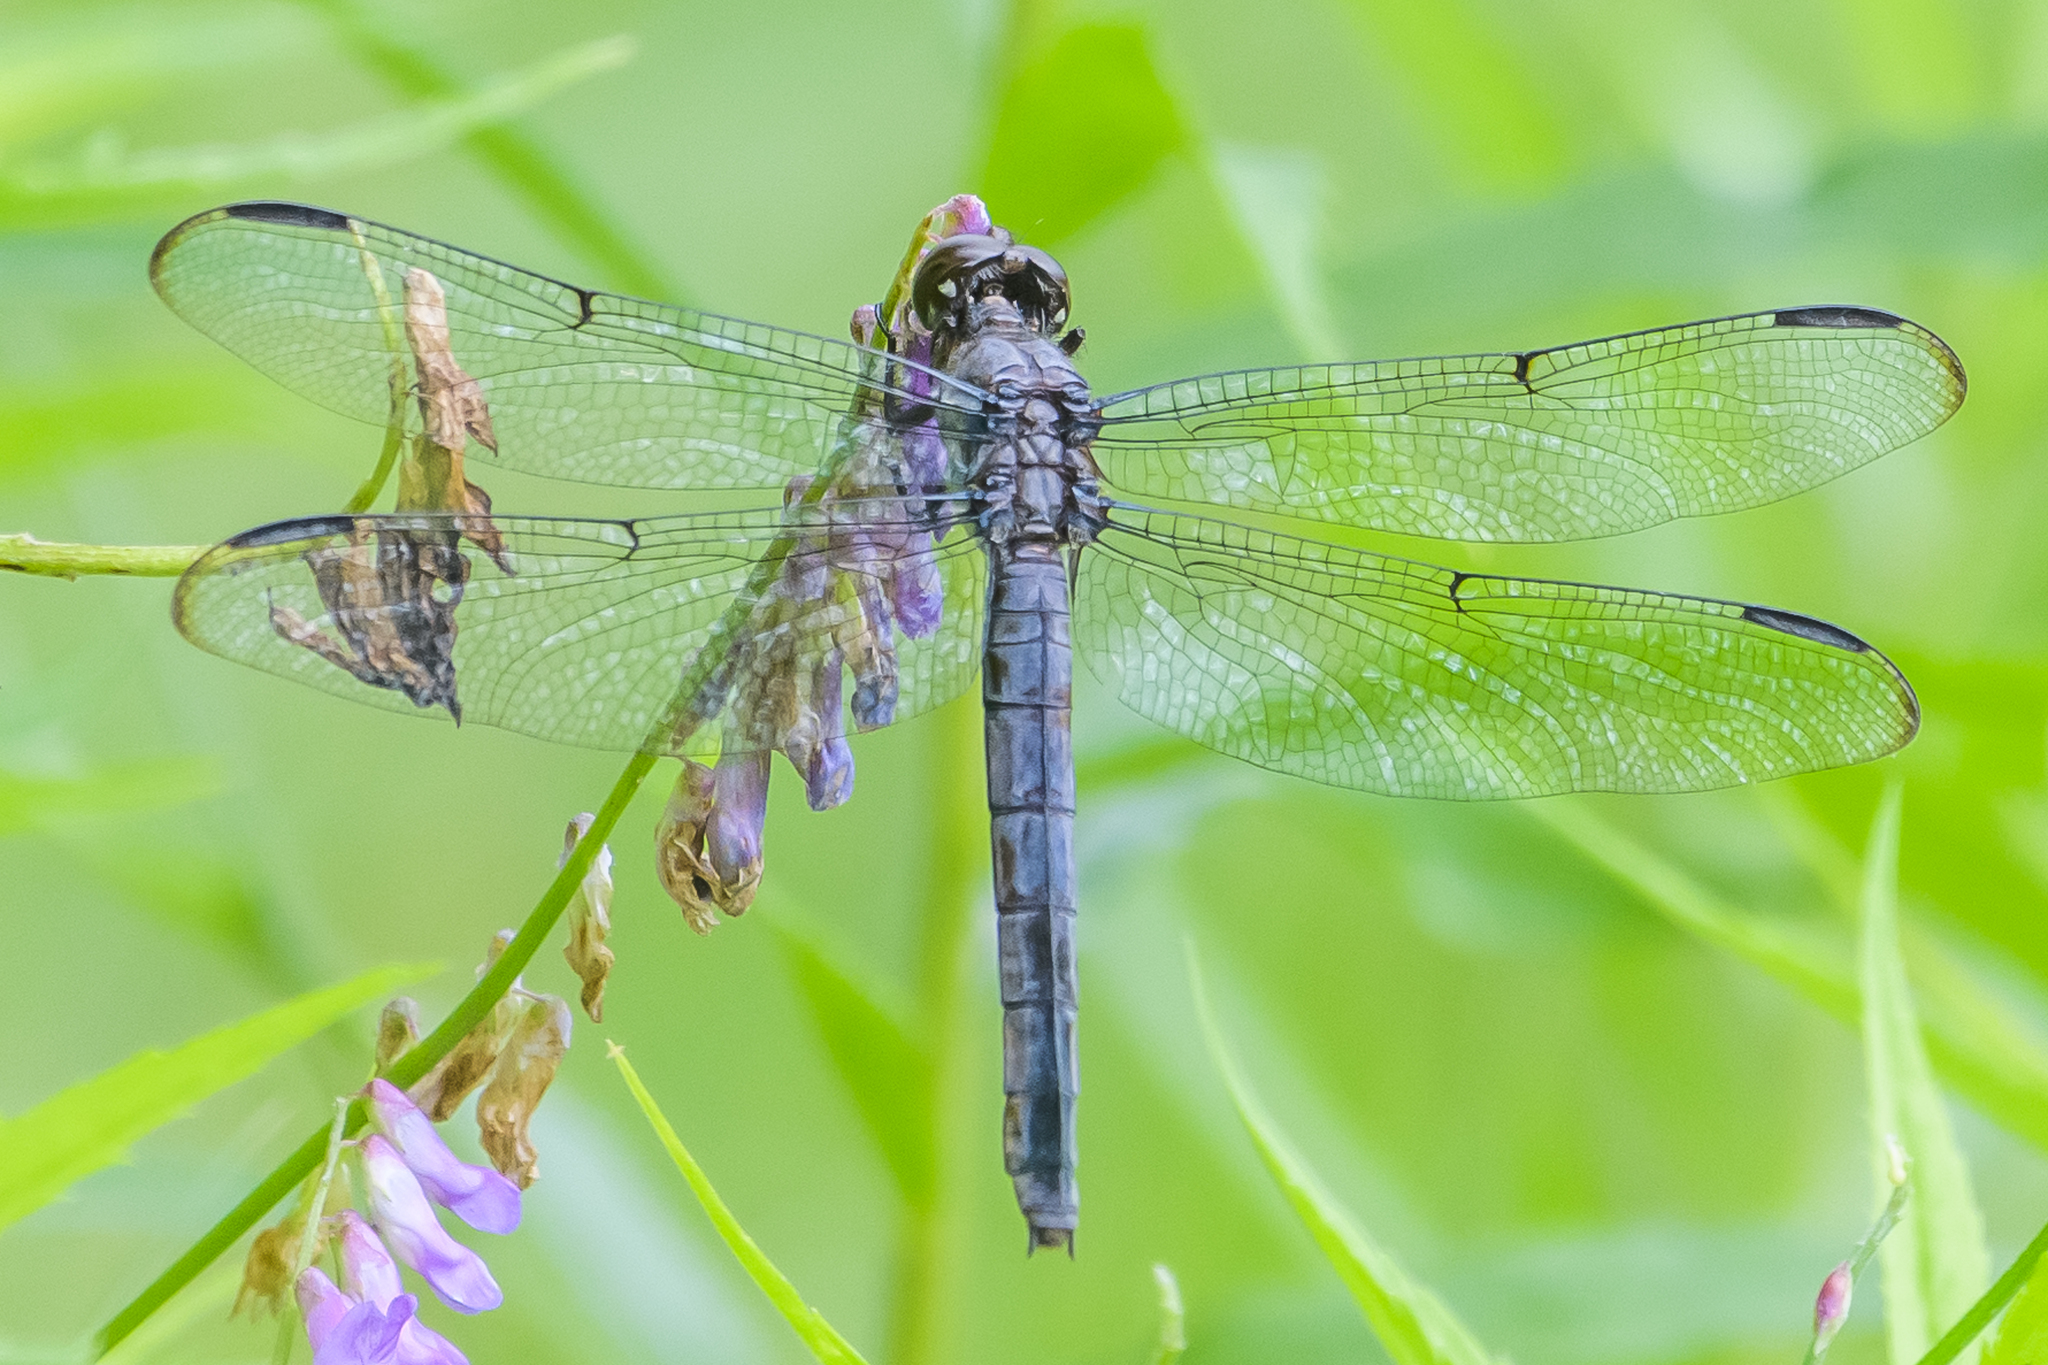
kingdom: Animalia
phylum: Arthropoda
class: Insecta
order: Odonata
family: Libellulidae
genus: Libellula
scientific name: Libellula incesta
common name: Slaty skimmer
